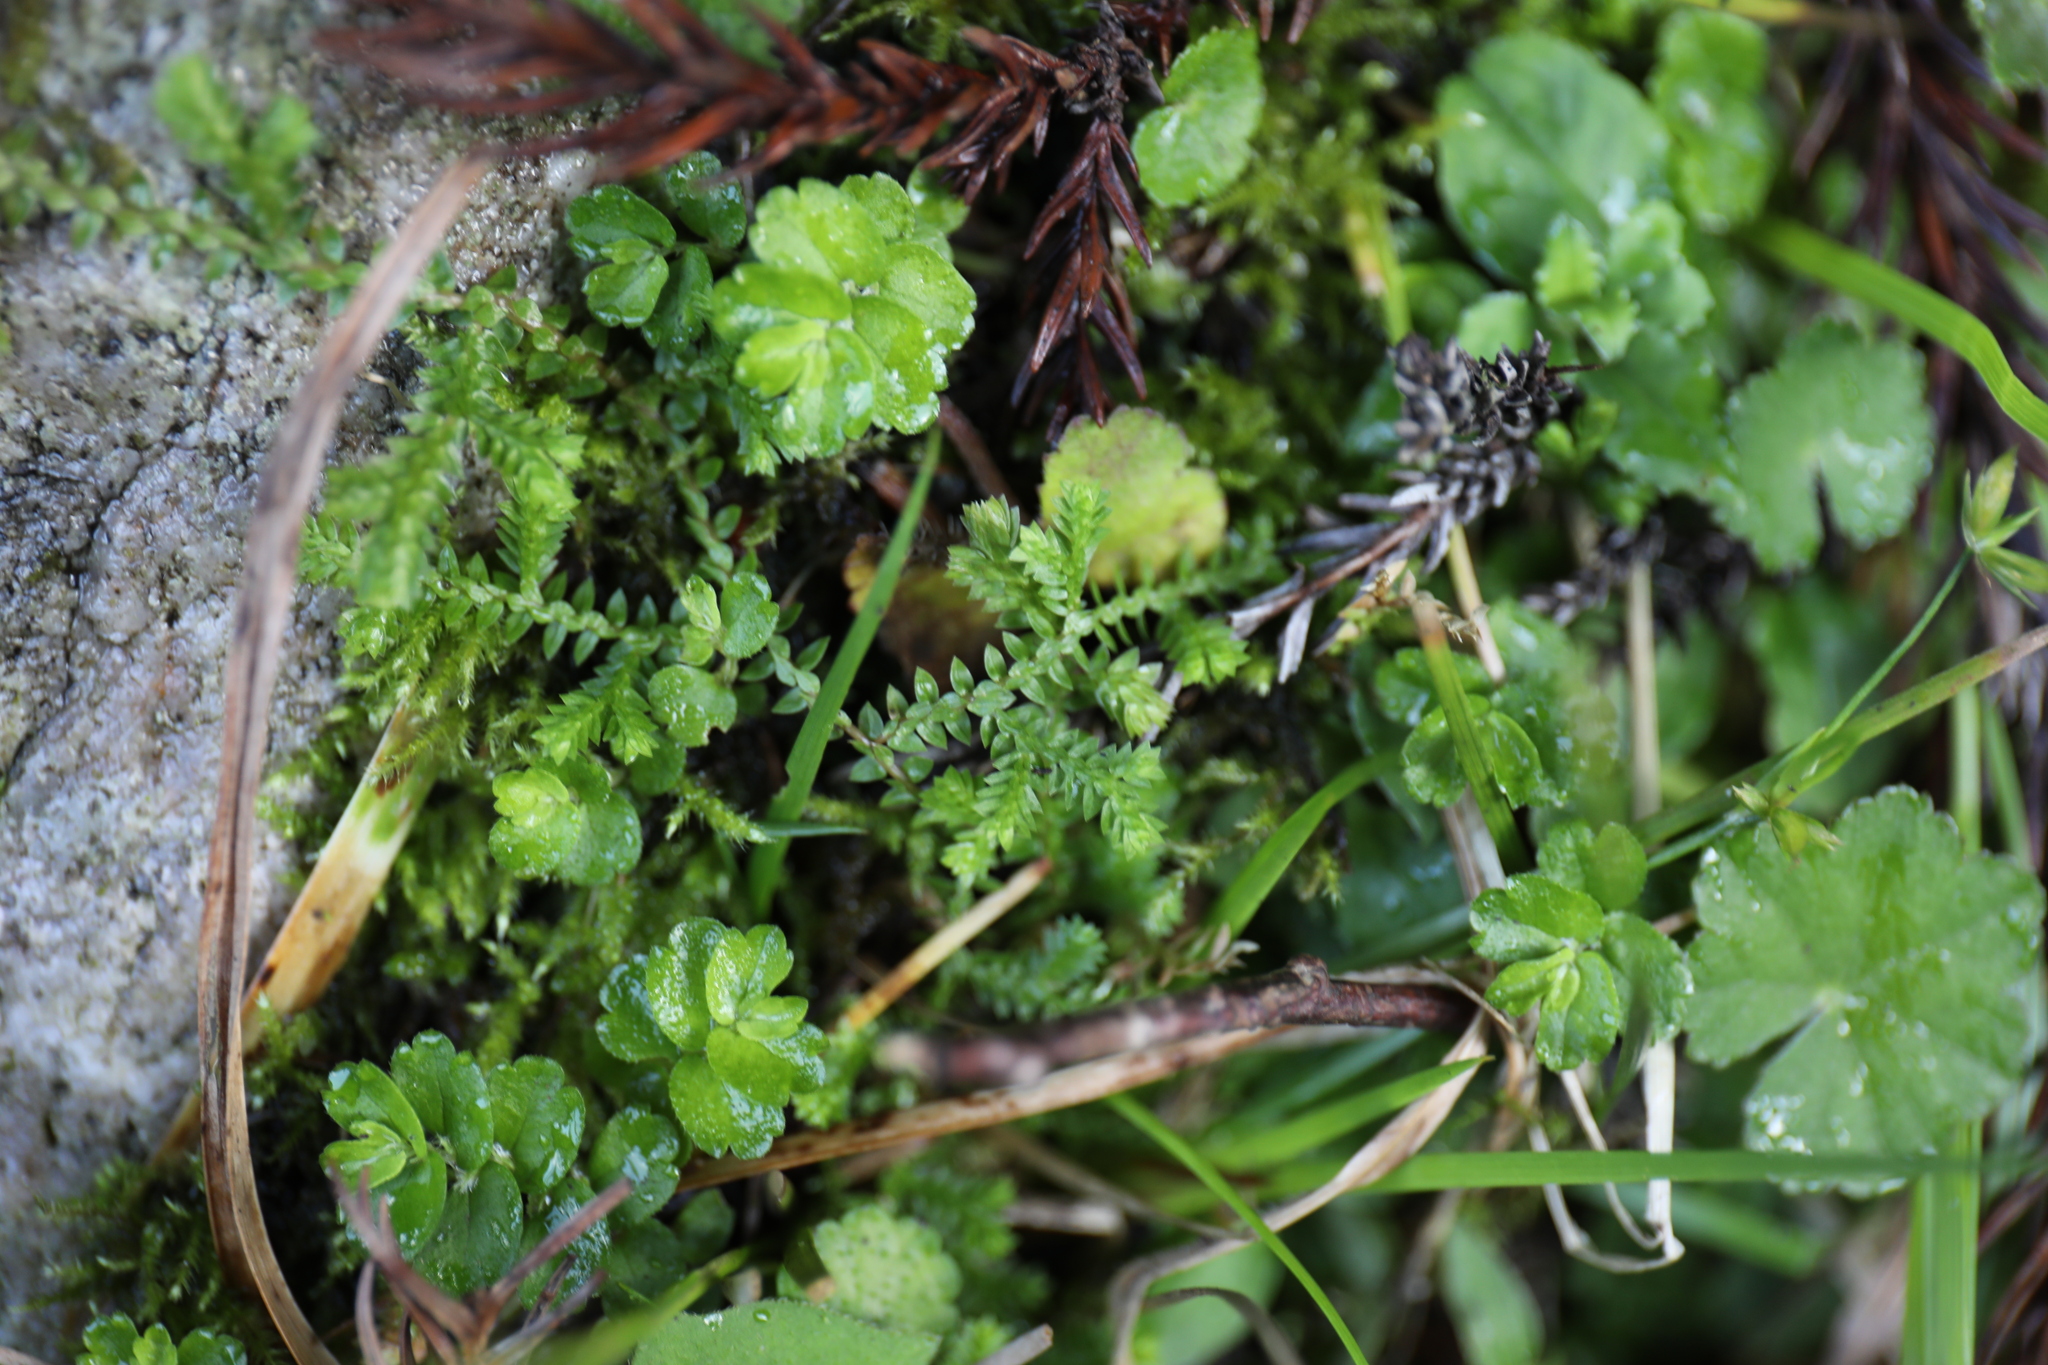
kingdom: Plantae
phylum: Tracheophyta
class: Lycopodiopsida
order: Selaginellales
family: Selaginellaceae
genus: Selaginella
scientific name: Selaginella remotifolia
